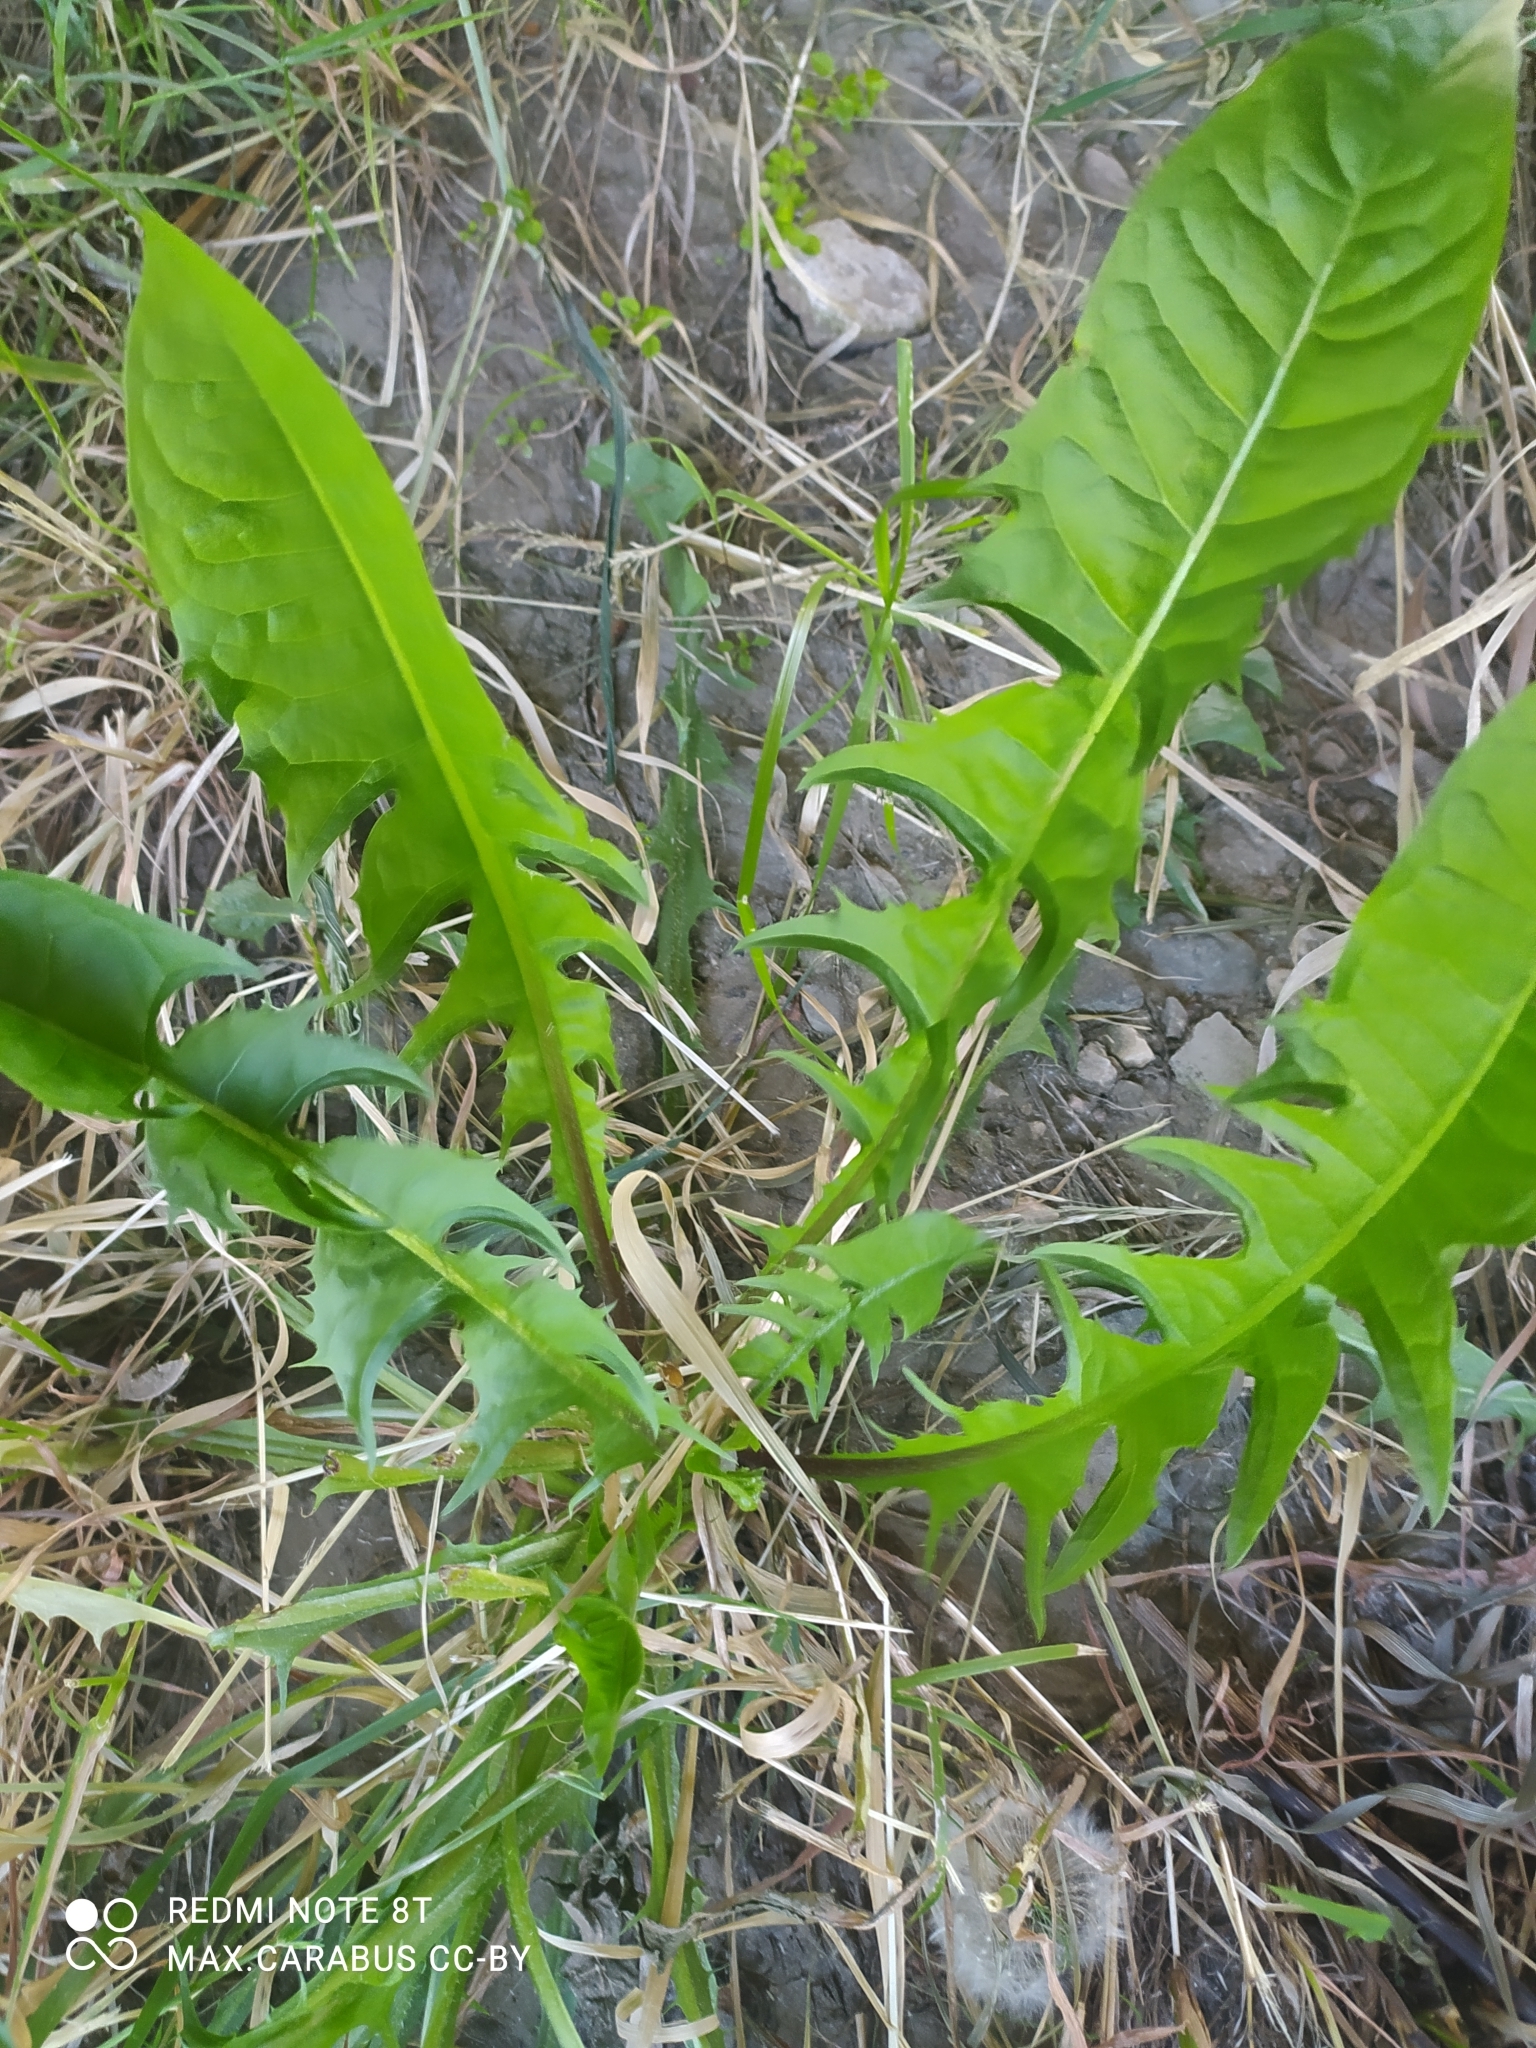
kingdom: Plantae
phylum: Tracheophyta
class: Magnoliopsida
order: Asterales
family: Asteraceae
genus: Taraxacum
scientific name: Taraxacum officinale
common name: Common dandelion
